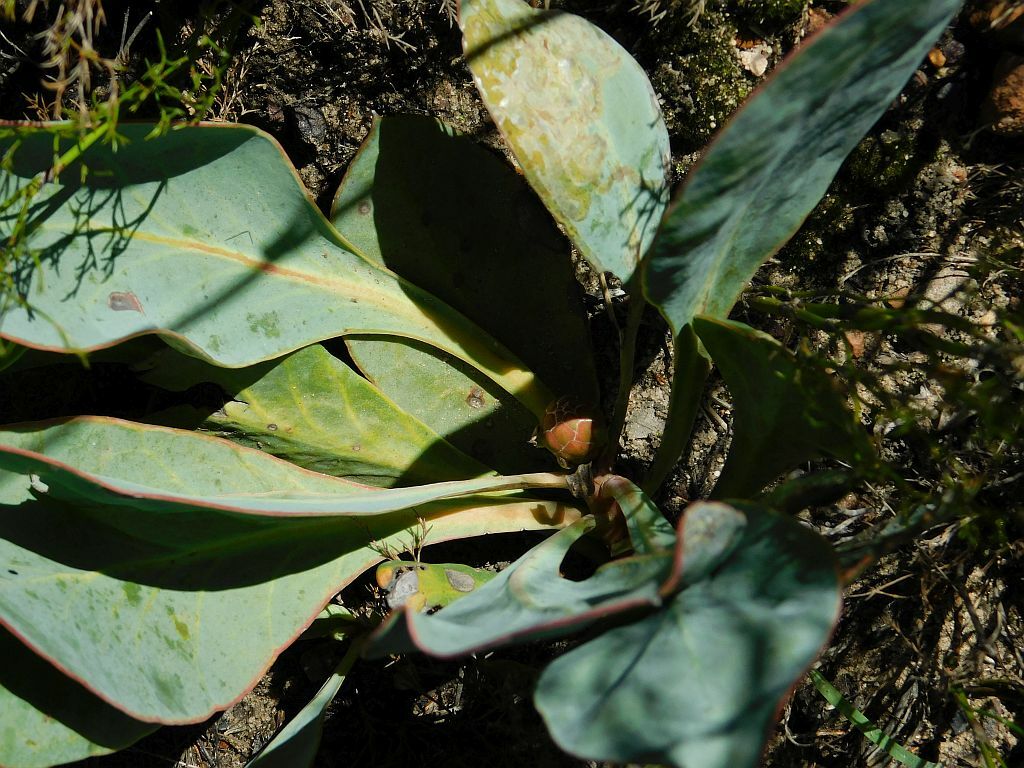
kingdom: Plantae
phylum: Tracheophyta
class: Magnoliopsida
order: Proteales
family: Proteaceae
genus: Protea
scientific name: Protea acaulos
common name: Common ground sugarbush
